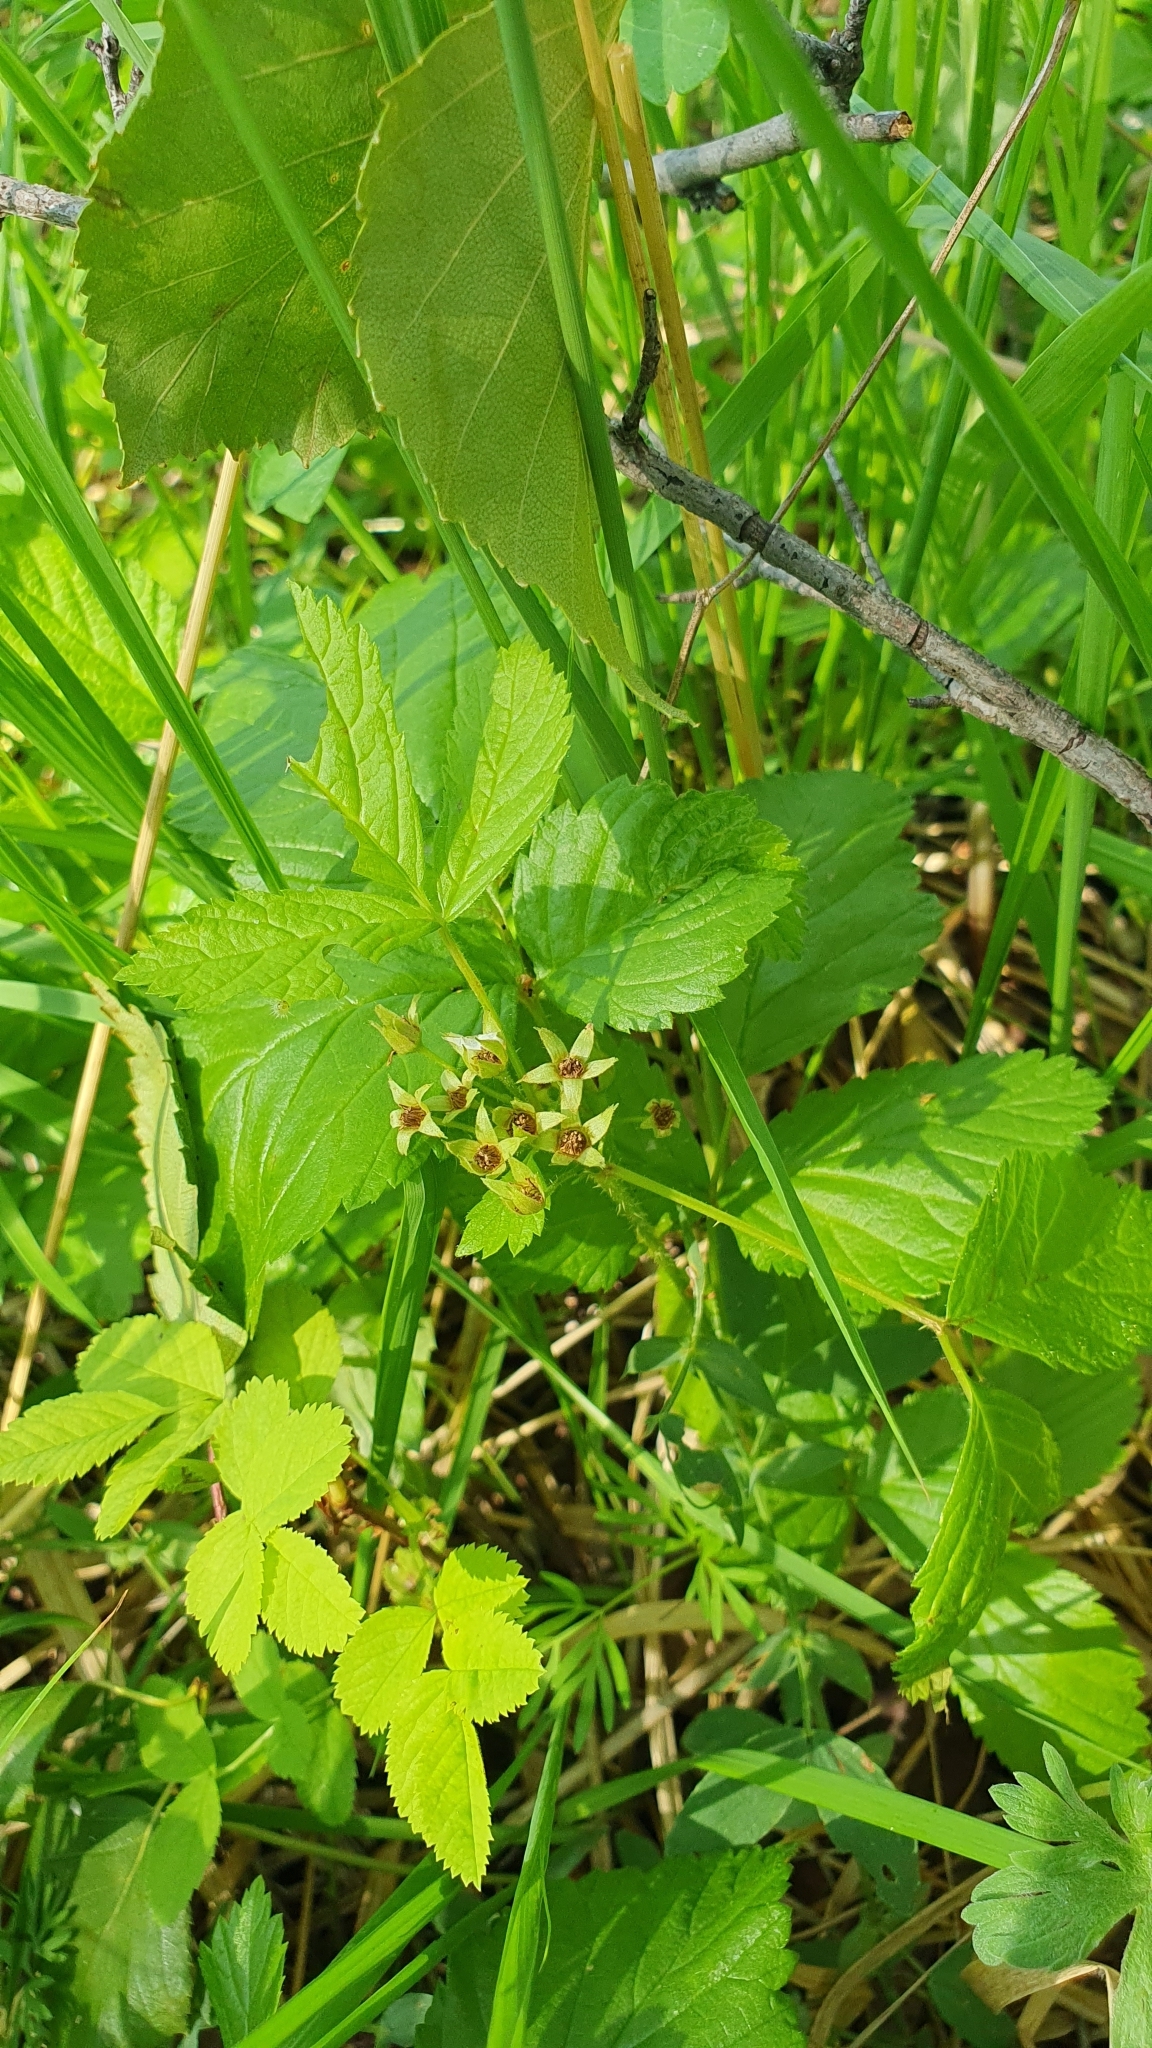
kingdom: Plantae
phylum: Tracheophyta
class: Magnoliopsida
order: Rosales
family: Rosaceae
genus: Rubus
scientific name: Rubus saxatilis
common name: Stone bramble
